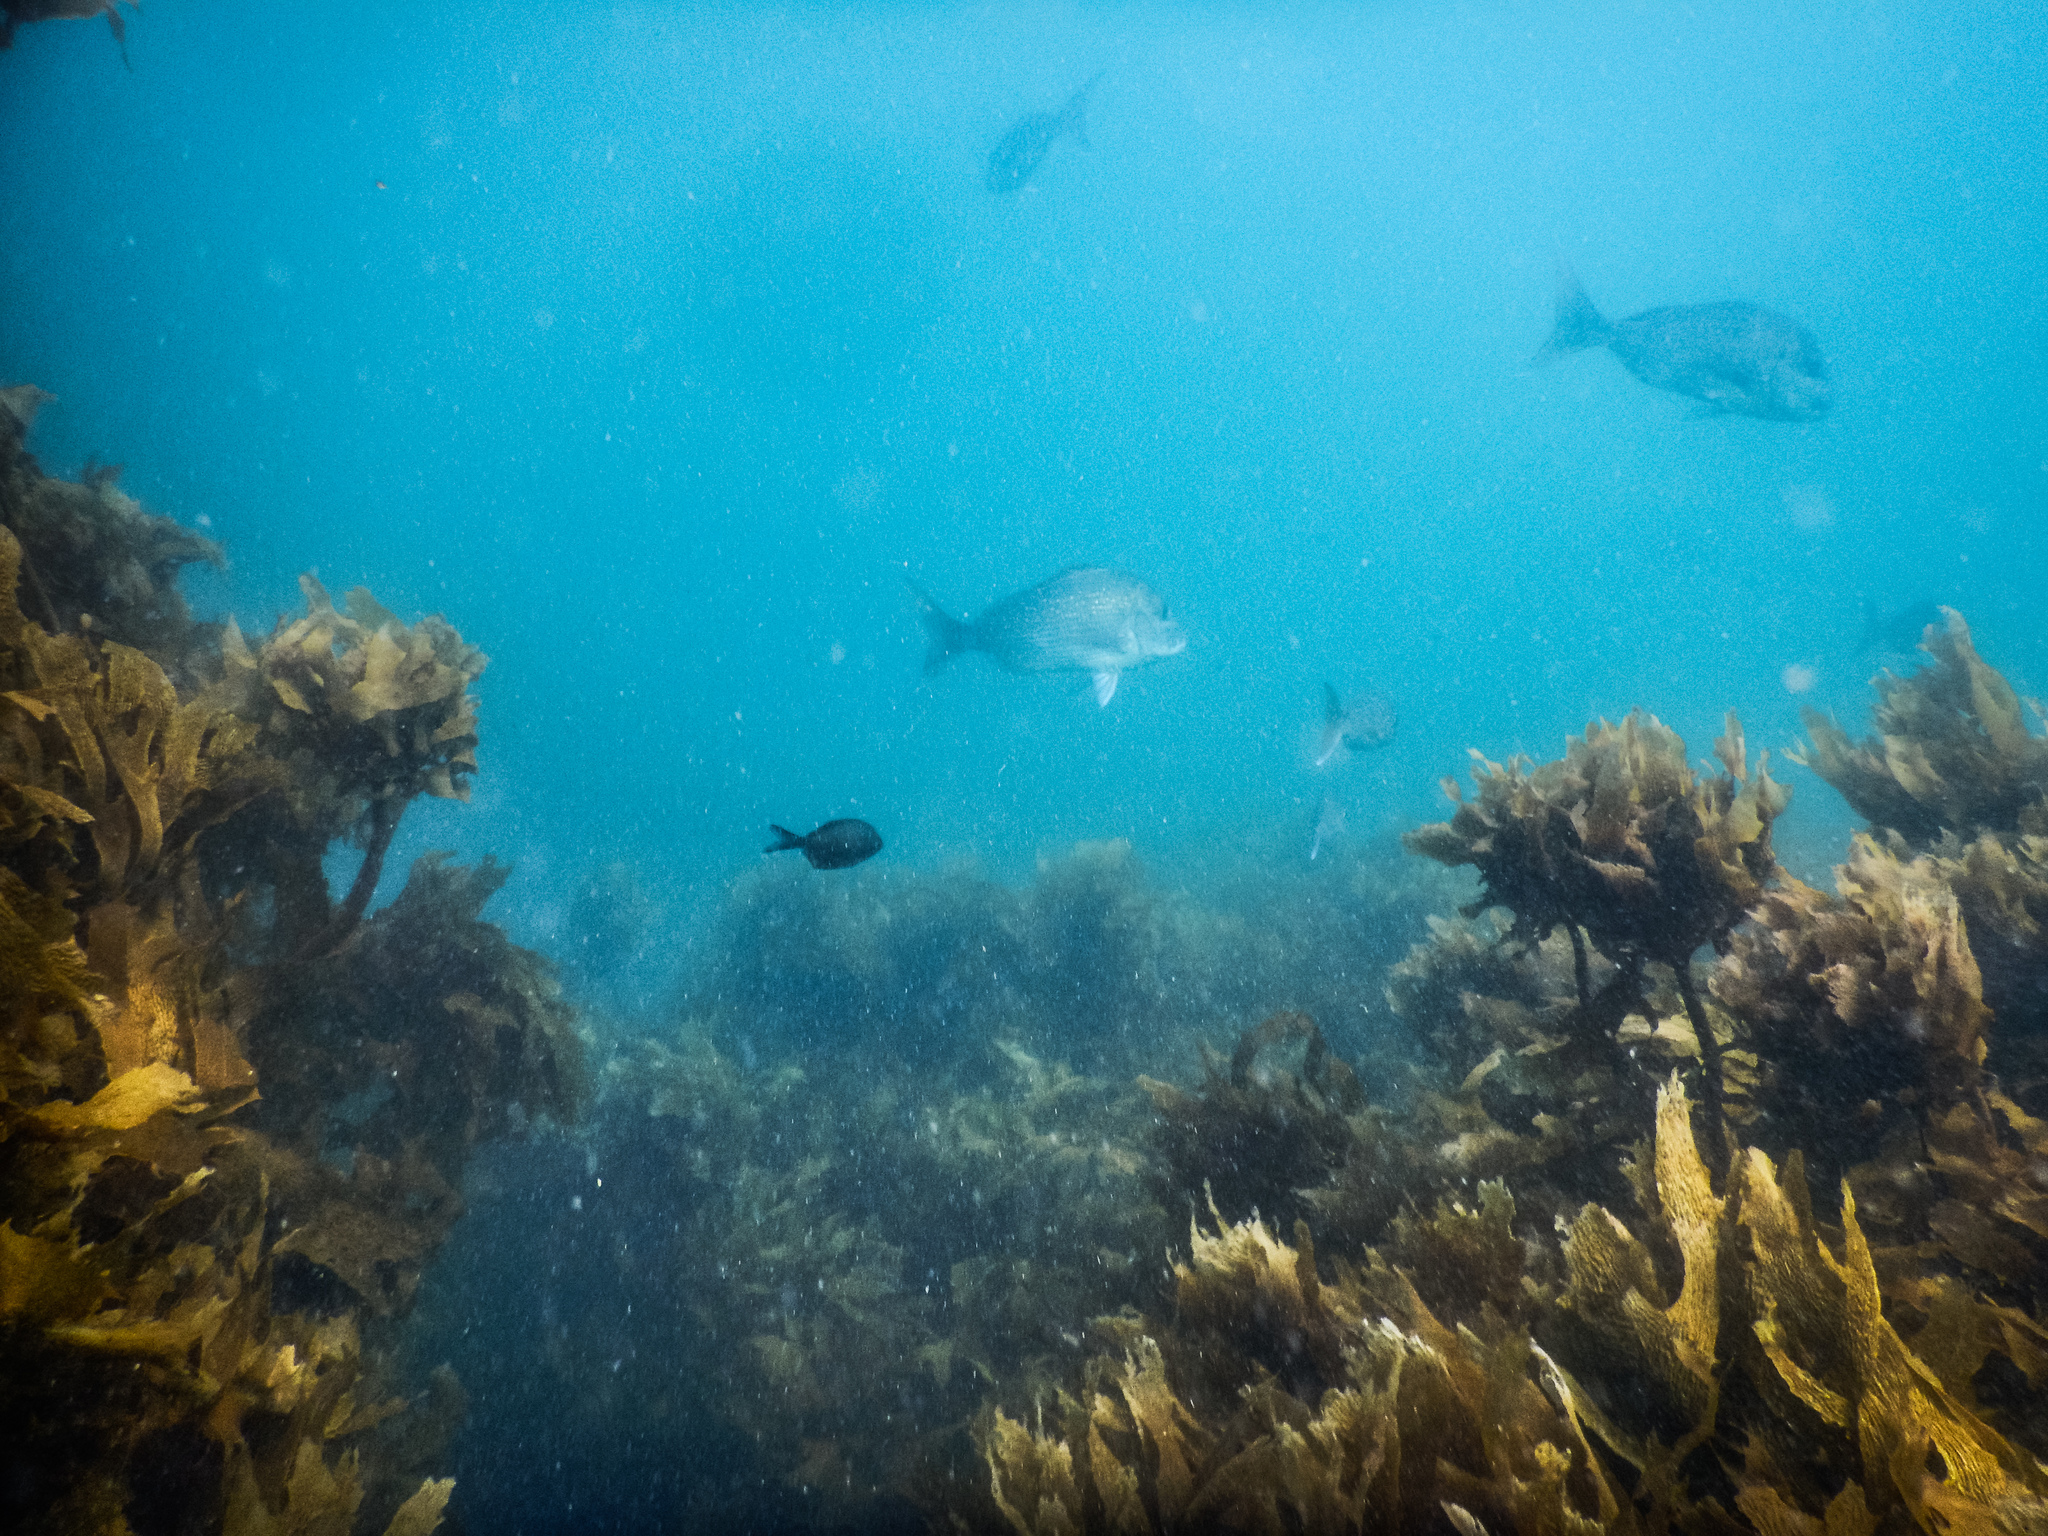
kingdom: Animalia
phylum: Chordata
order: Perciformes
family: Sparidae
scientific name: Sparidae
